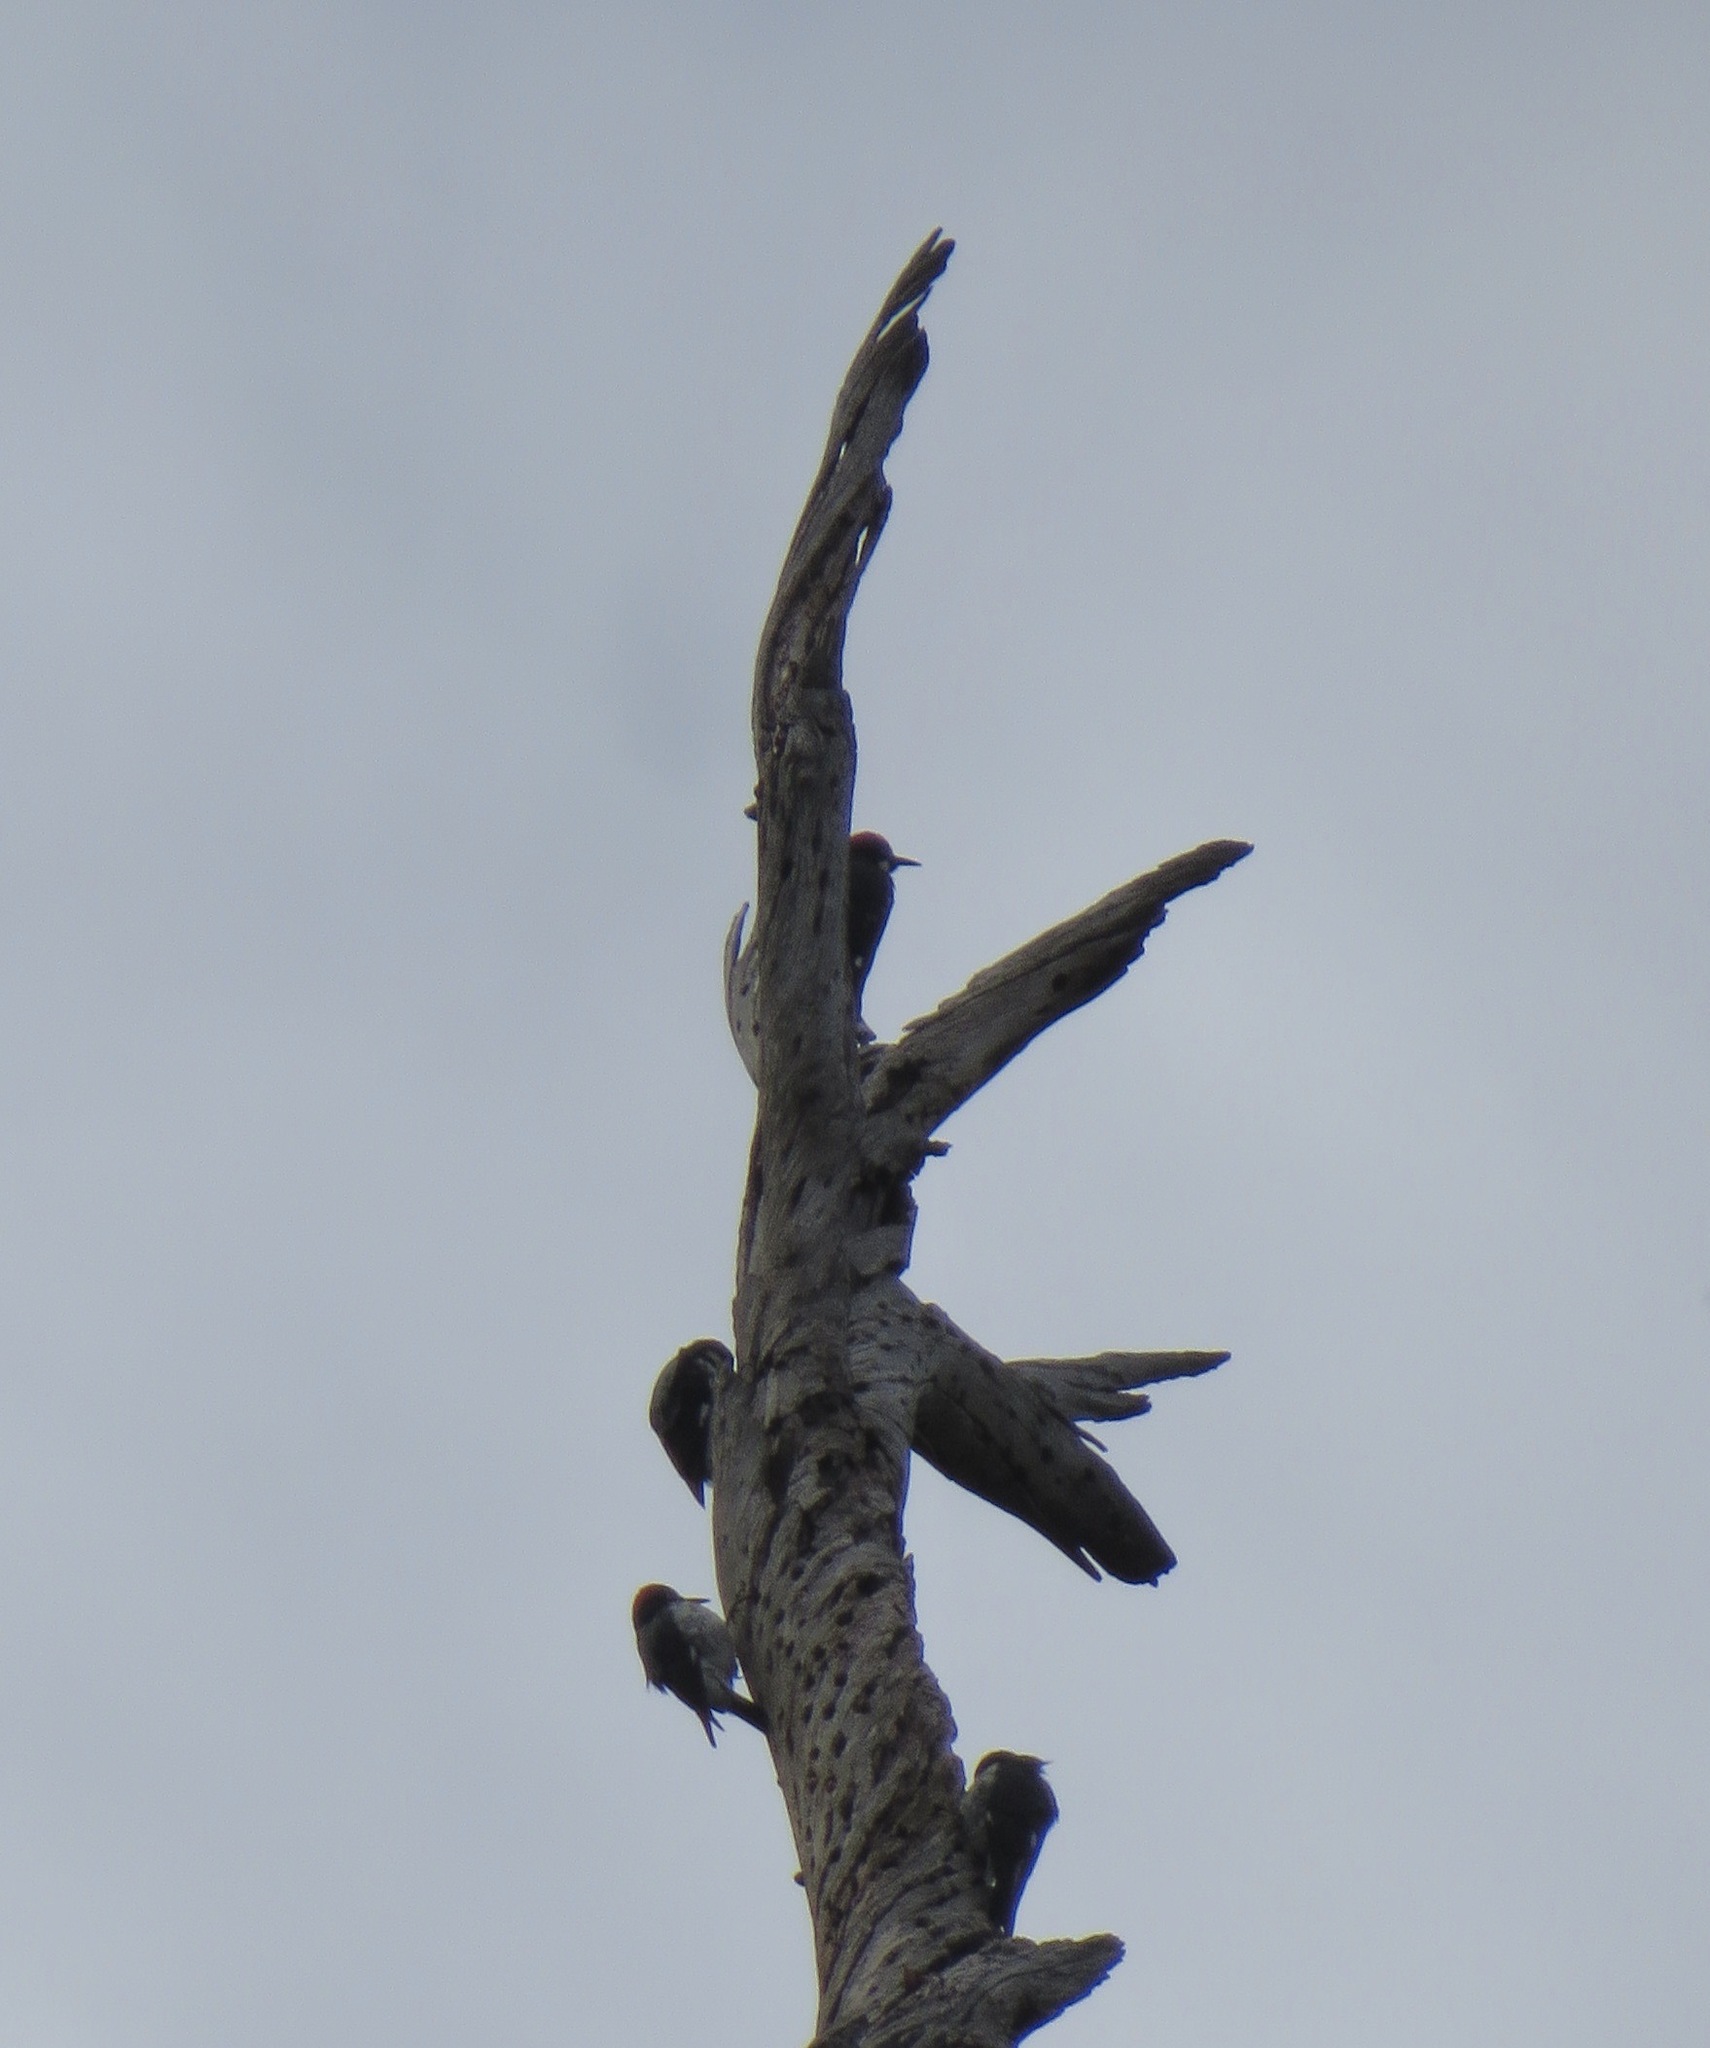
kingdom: Animalia
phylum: Chordata
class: Aves
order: Piciformes
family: Picidae
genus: Melanerpes
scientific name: Melanerpes formicivorus
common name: Acorn woodpecker
